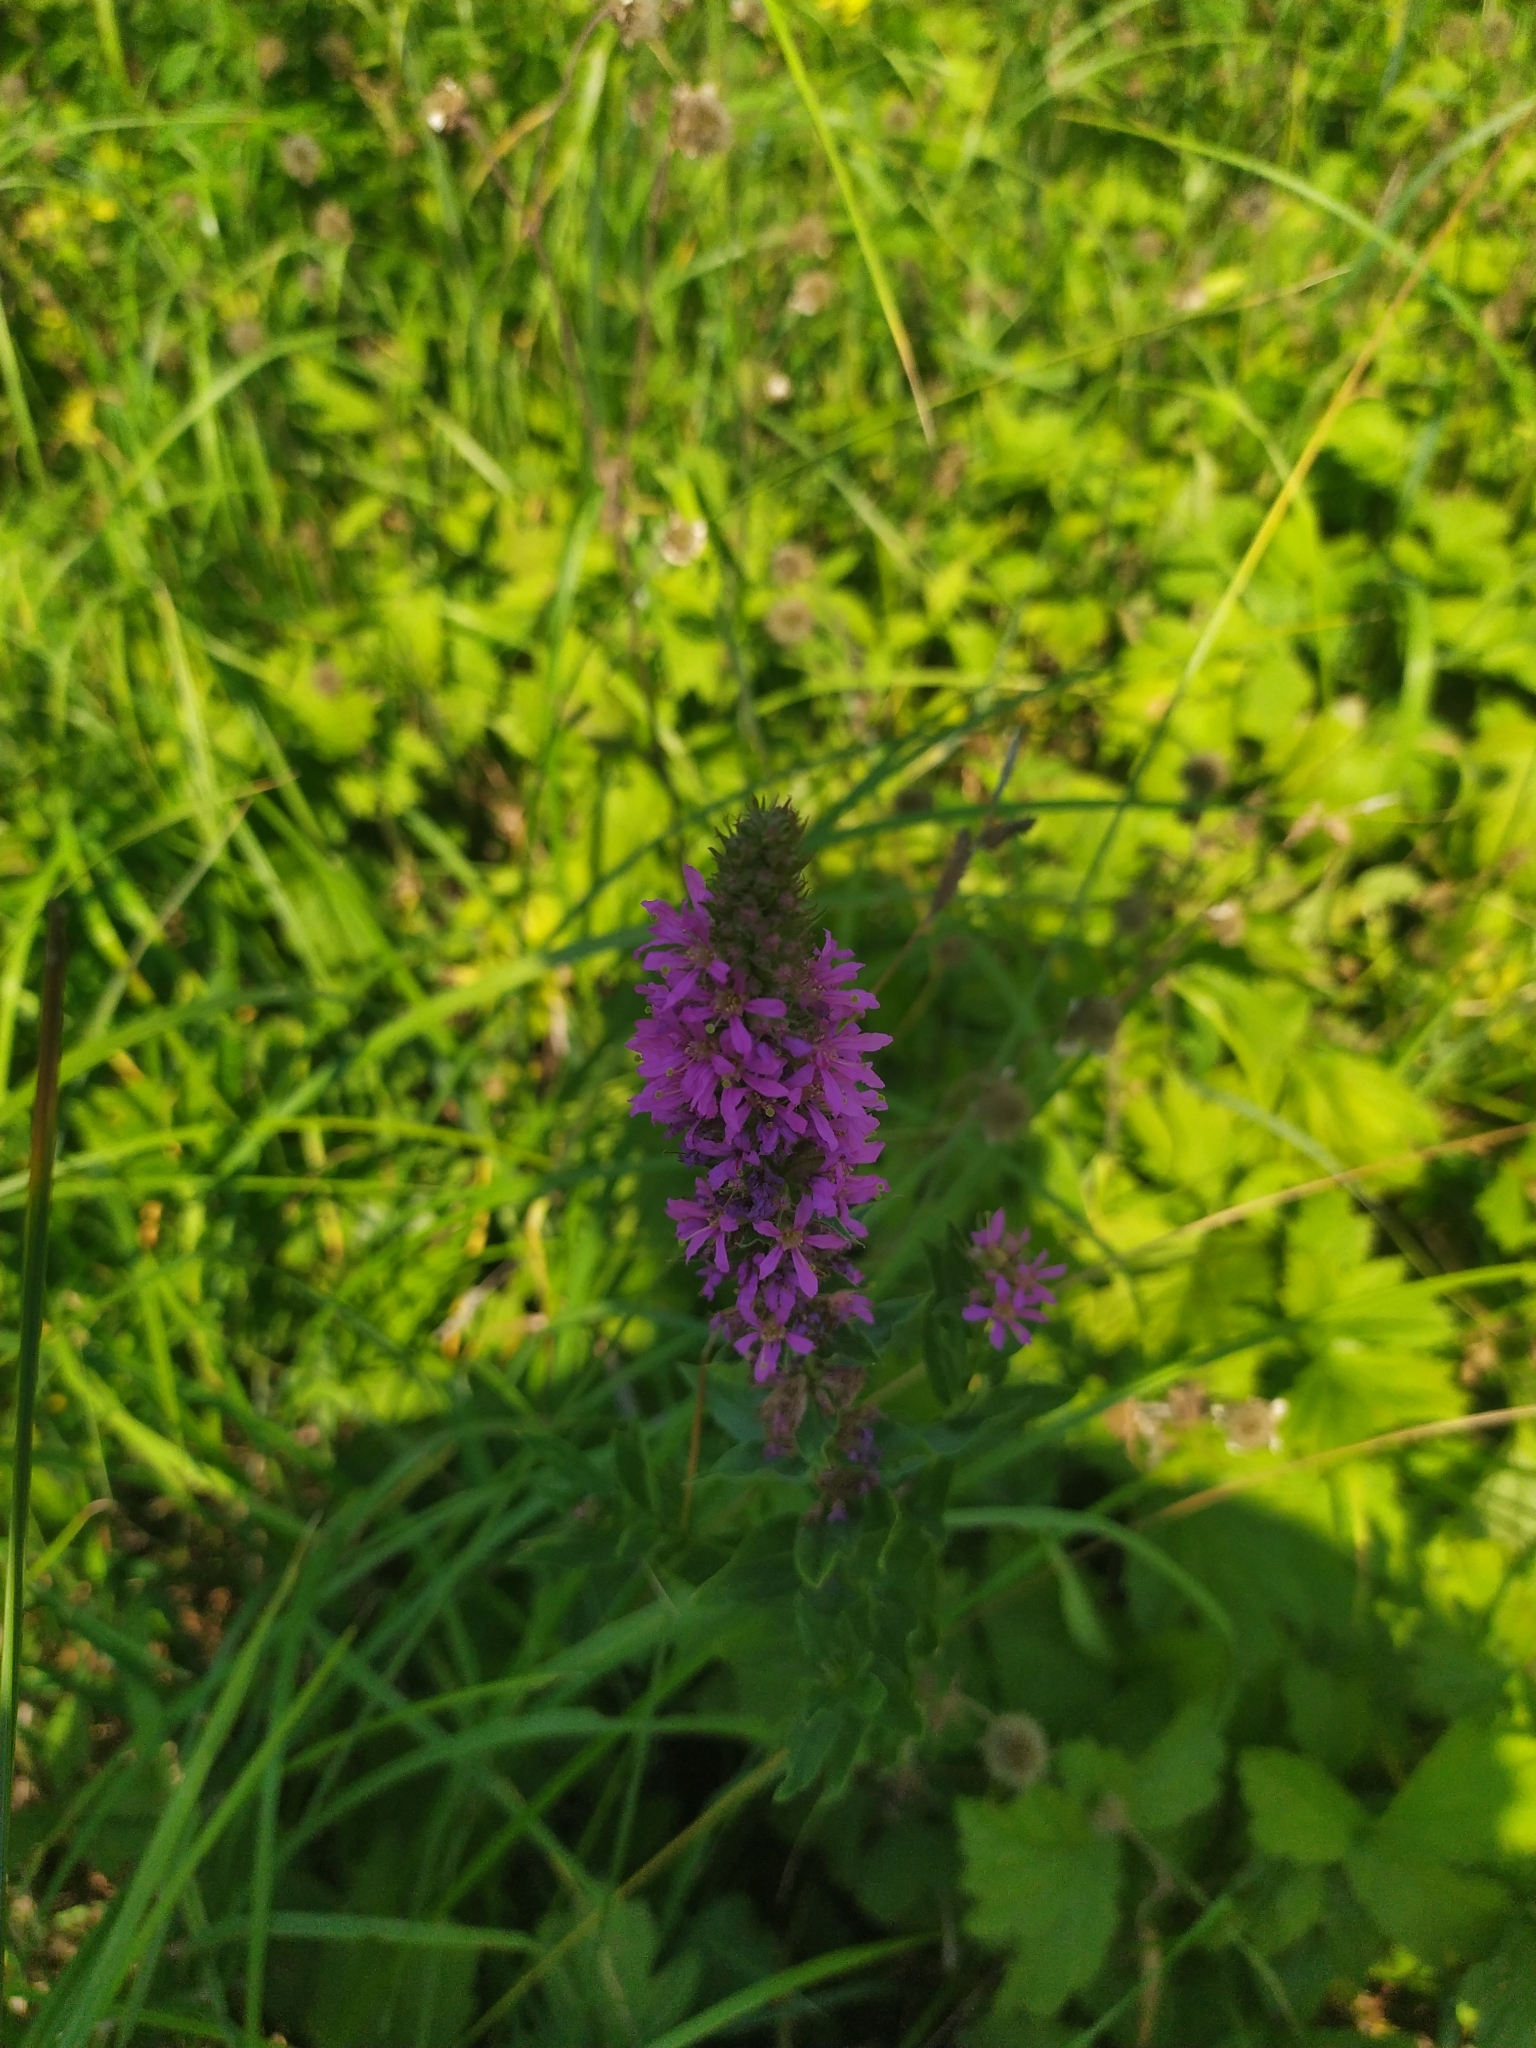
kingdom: Plantae
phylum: Tracheophyta
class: Magnoliopsida
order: Myrtales
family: Lythraceae
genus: Lythrum
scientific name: Lythrum salicaria
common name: Purple loosestrife
